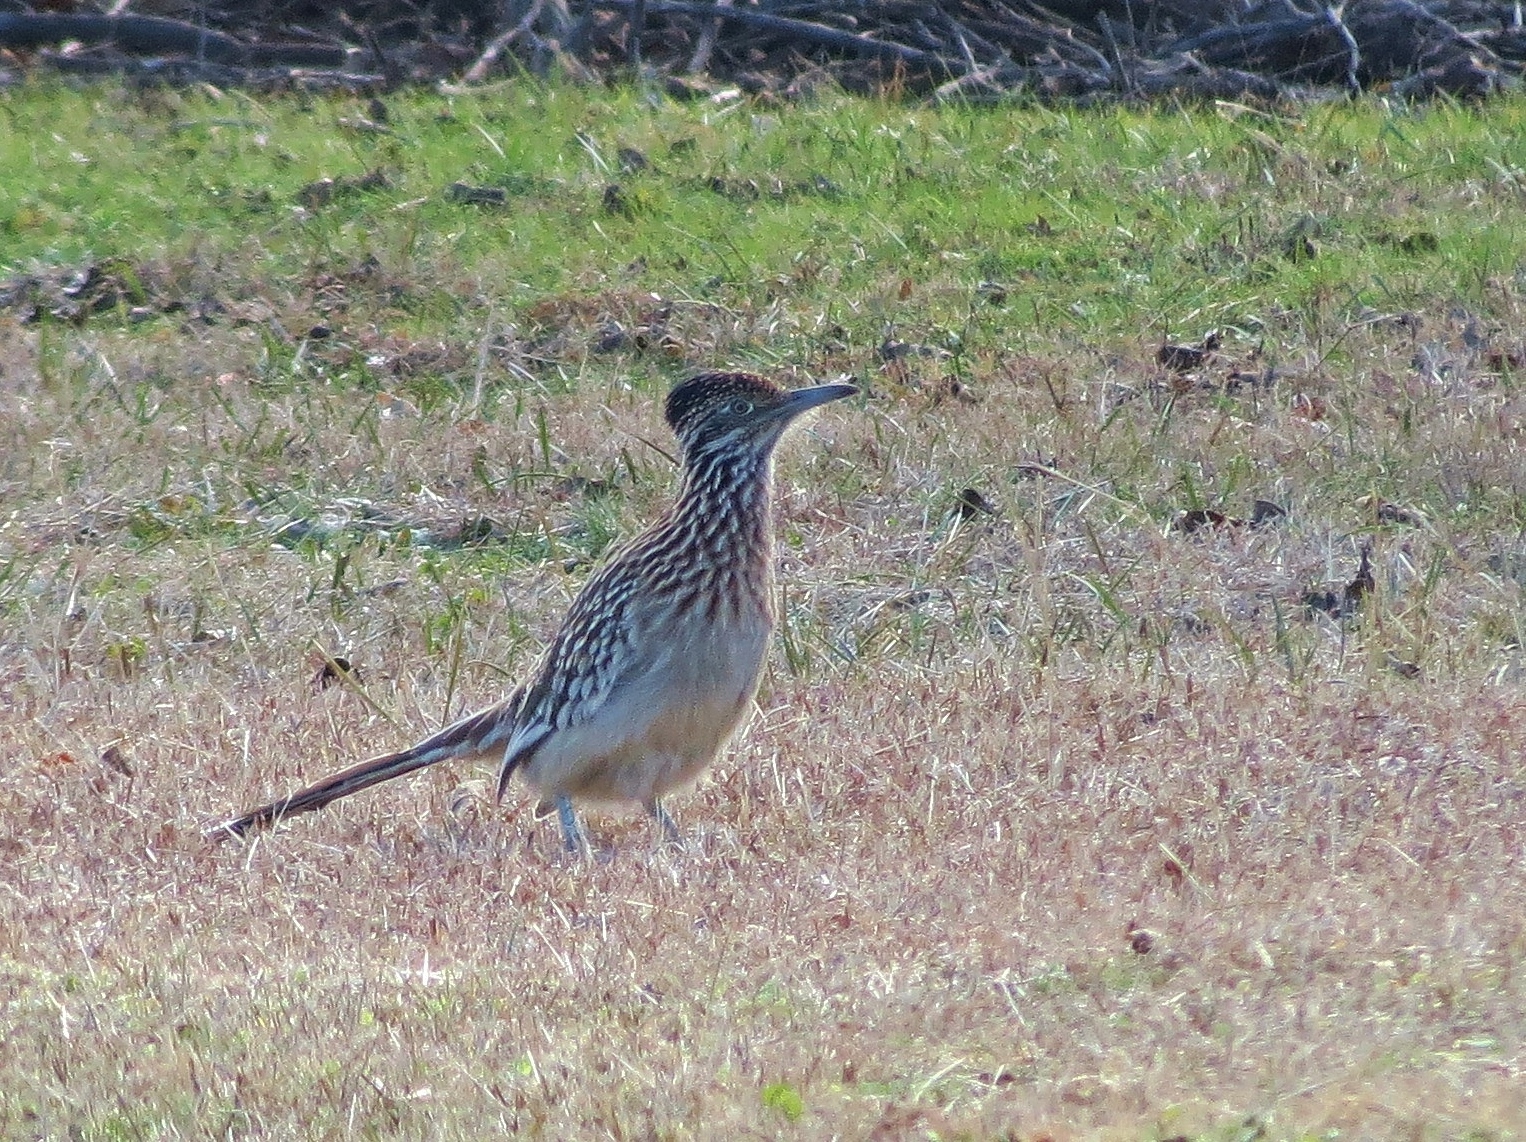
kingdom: Animalia
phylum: Chordata
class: Aves
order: Cuculiformes
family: Cuculidae
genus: Geococcyx
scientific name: Geococcyx californianus
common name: Greater roadrunner
